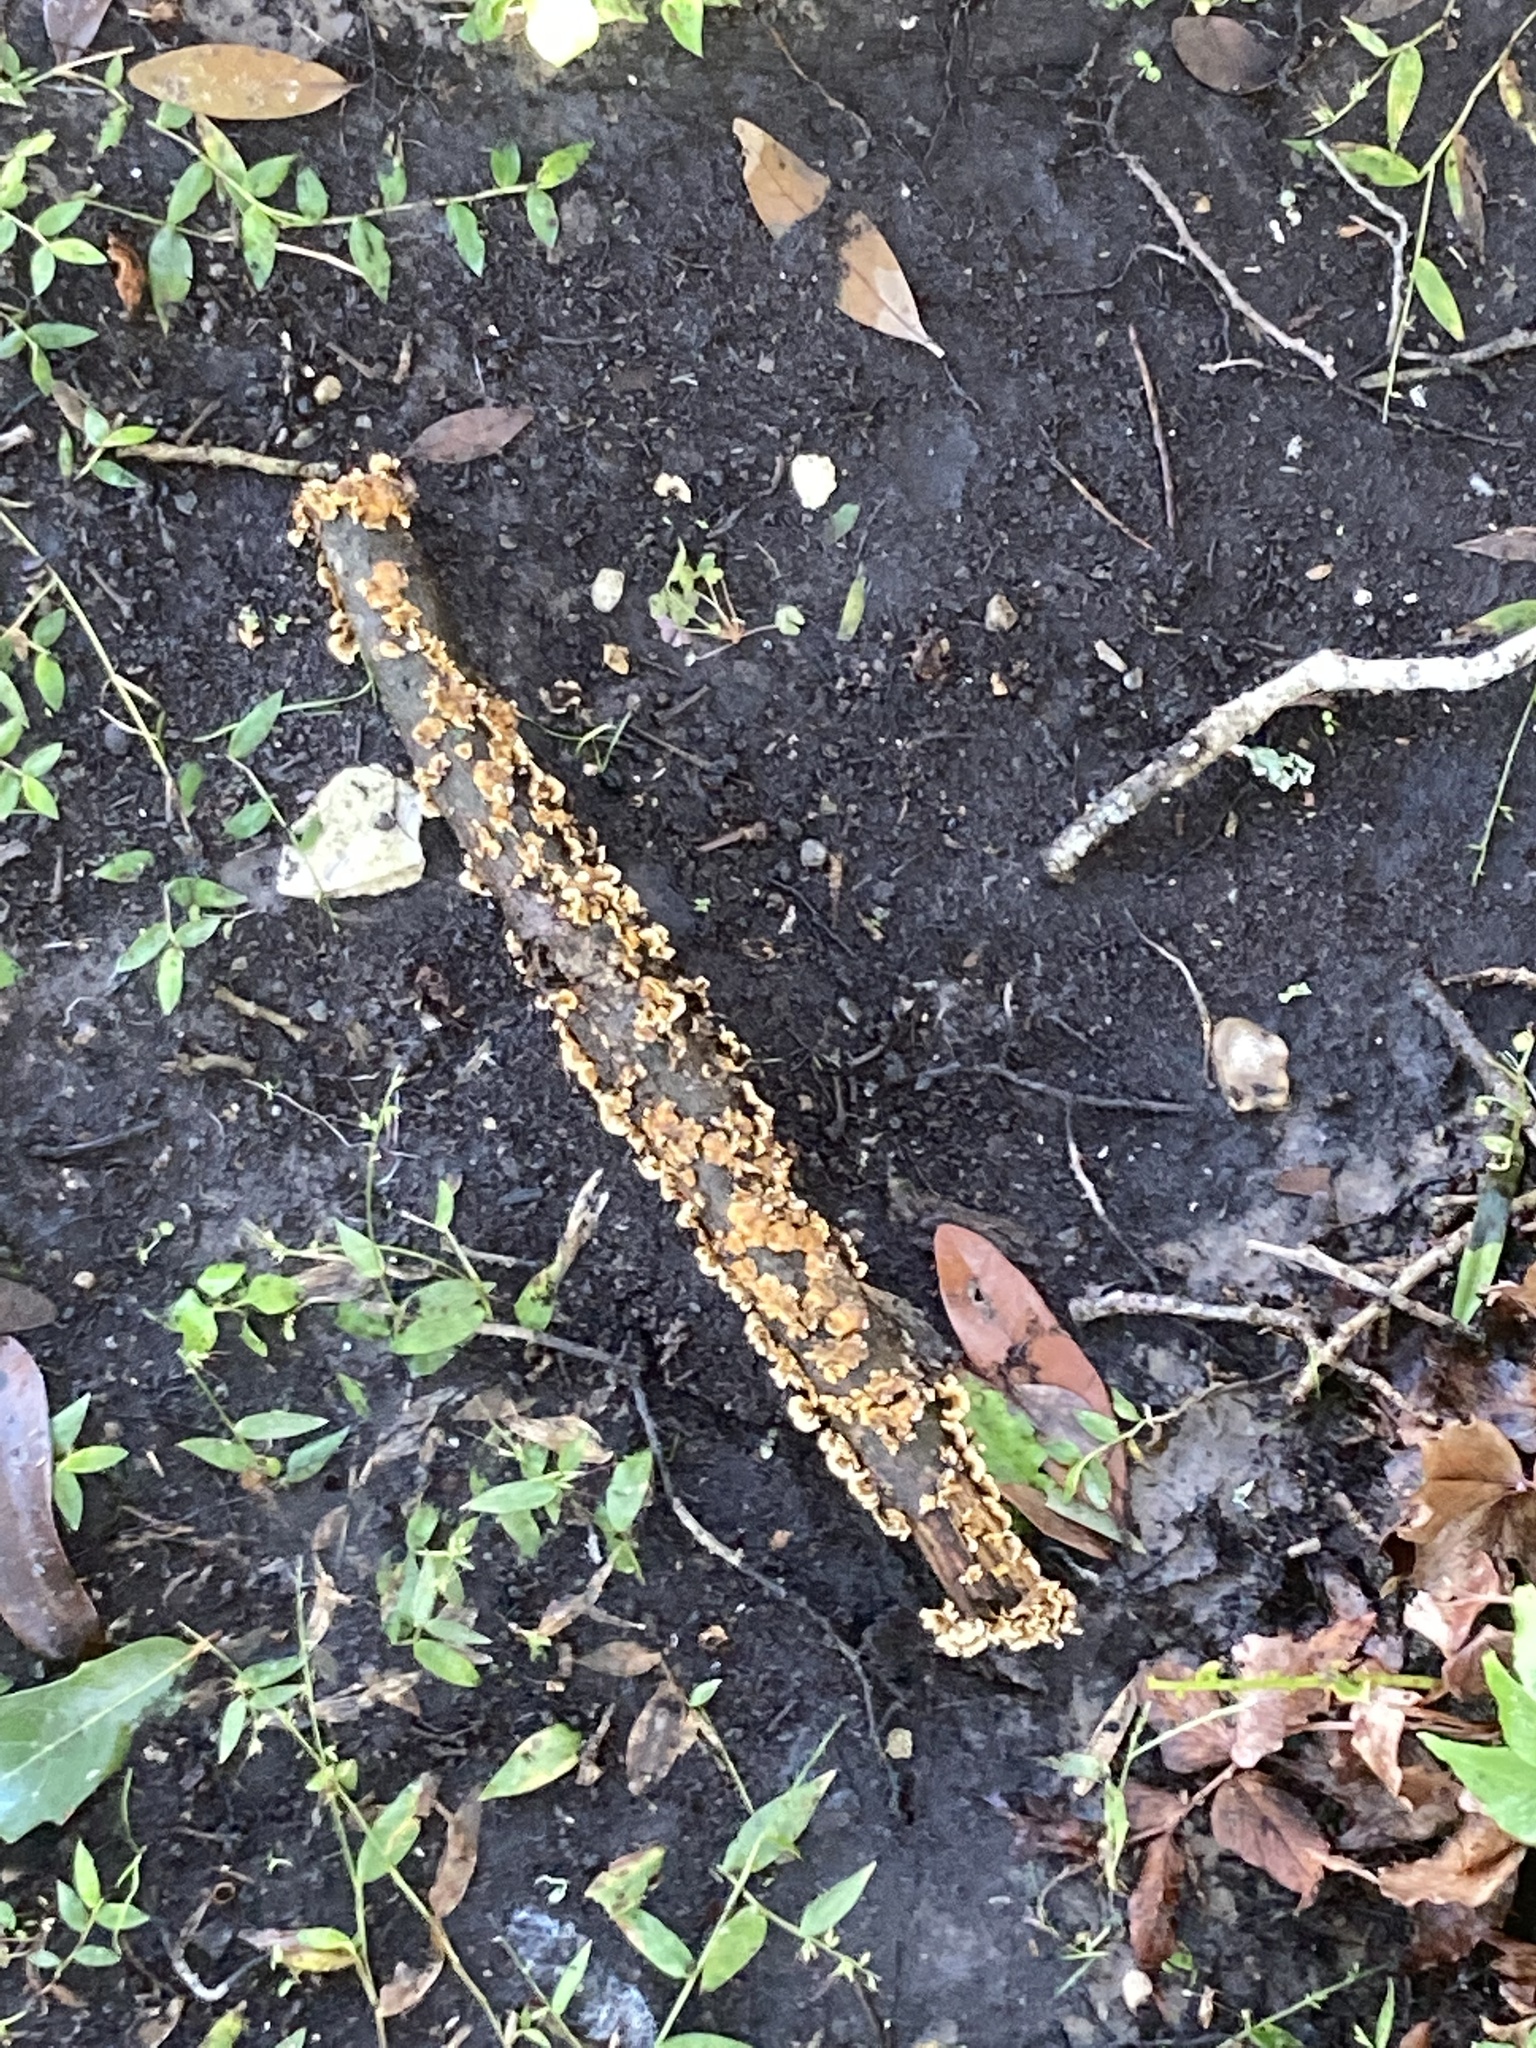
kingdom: Fungi
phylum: Basidiomycota
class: Agaricomycetes
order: Russulales
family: Stereaceae
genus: Stereum
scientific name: Stereum complicatum
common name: Crowded parchment
